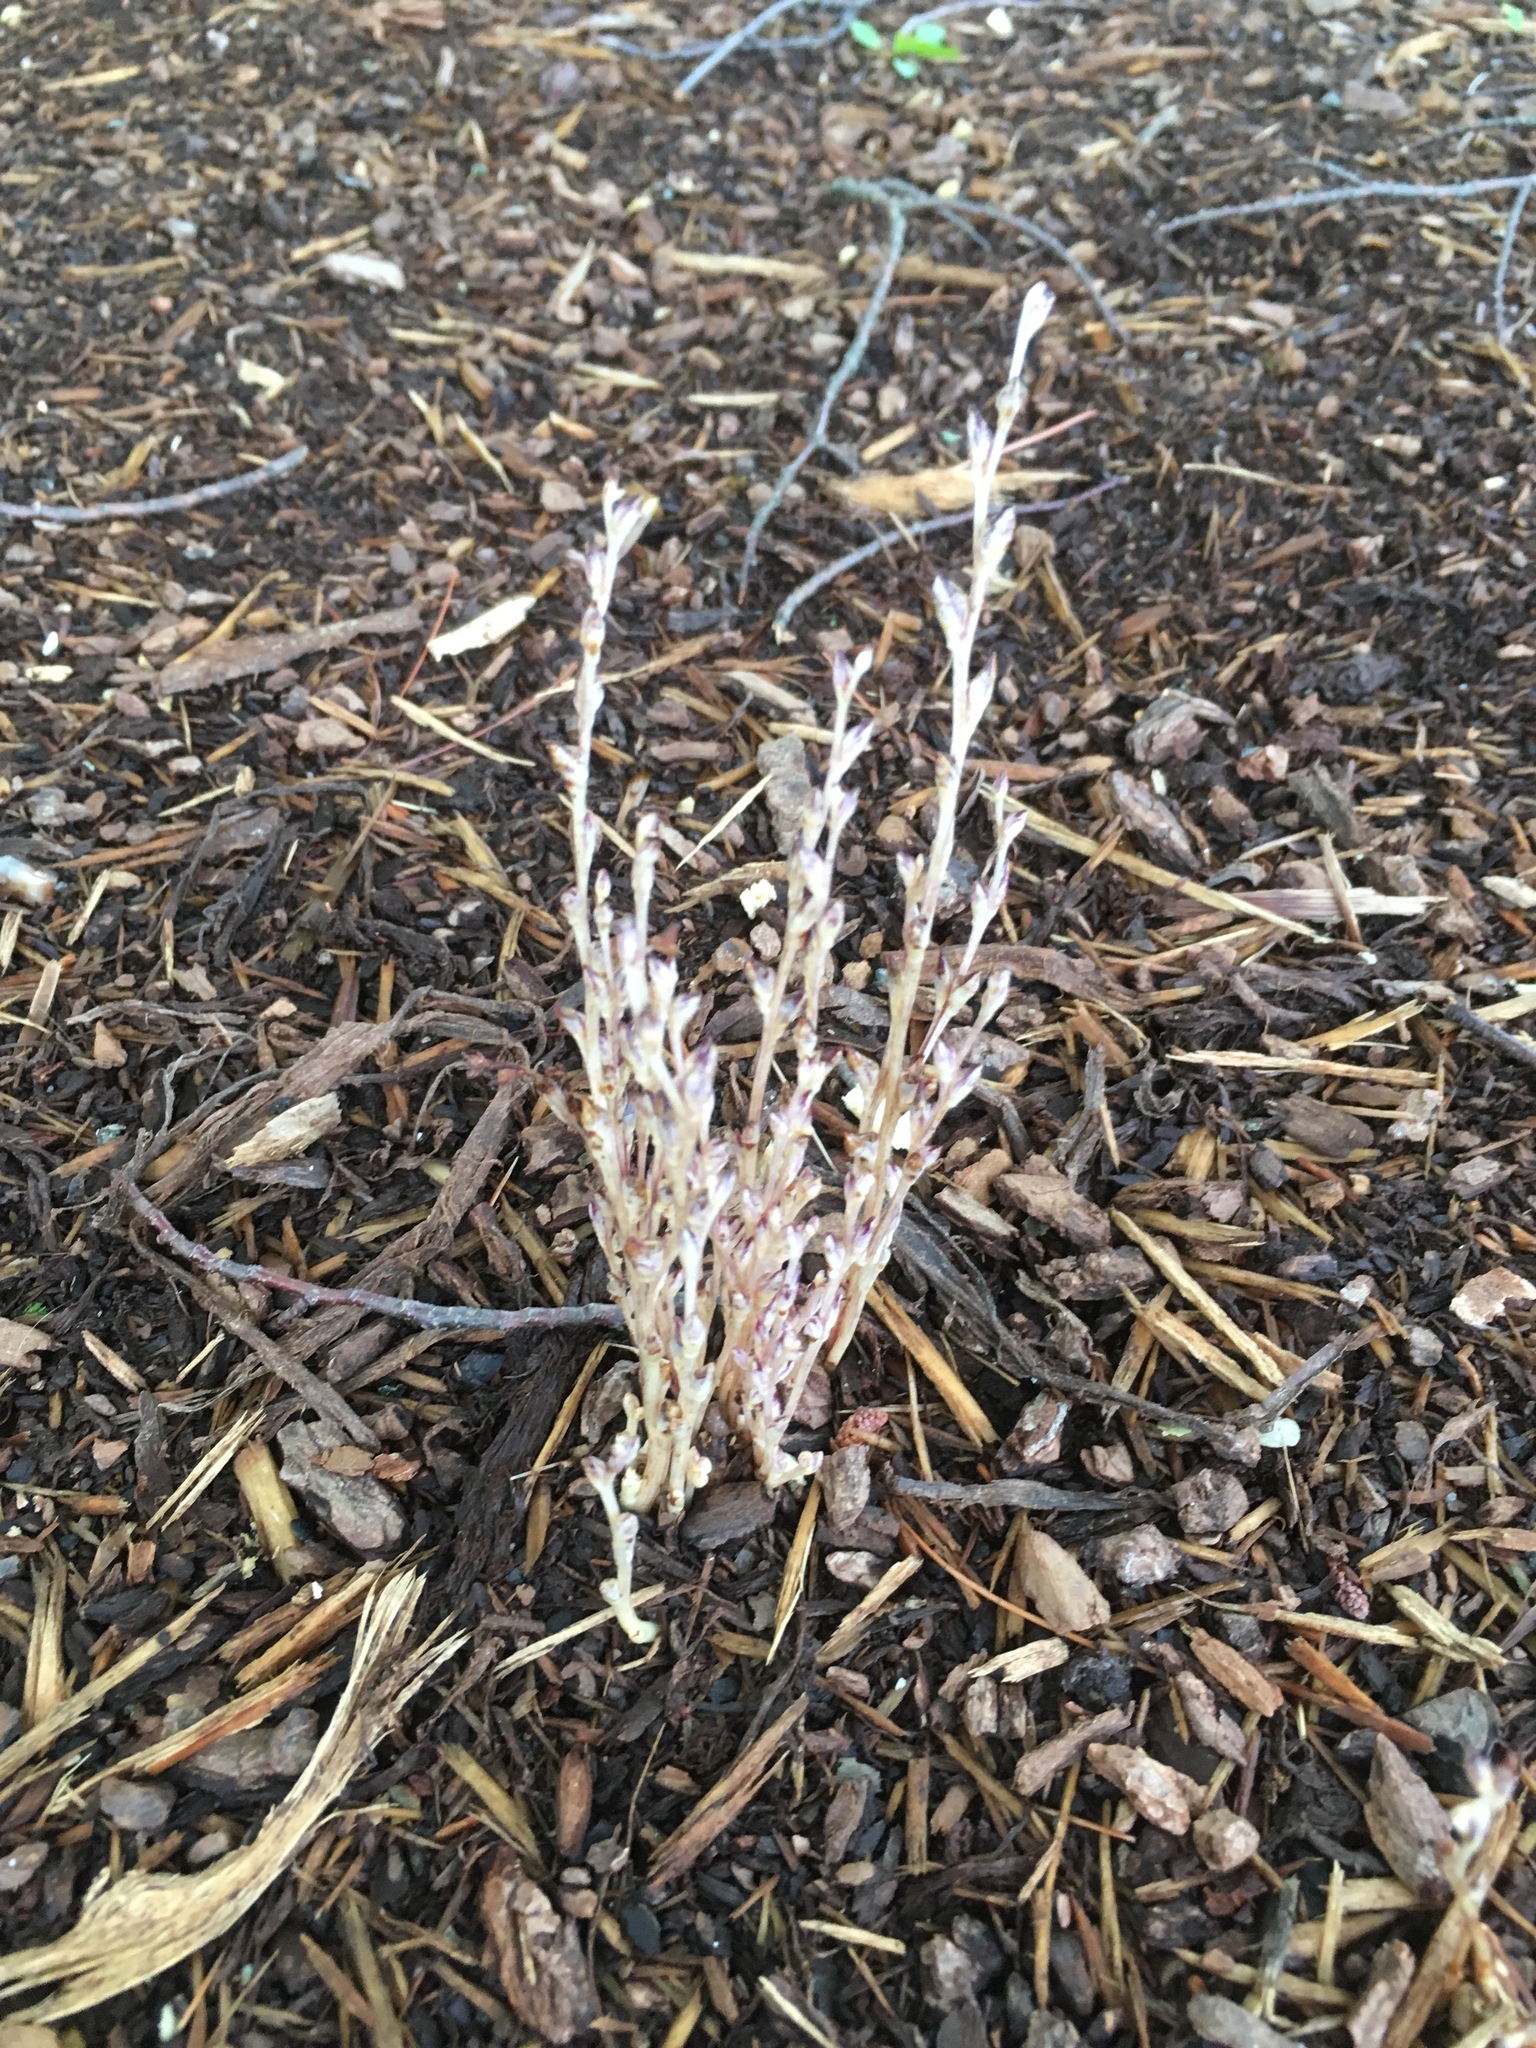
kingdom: Plantae
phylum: Tracheophyta
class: Magnoliopsida
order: Lamiales
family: Orobanchaceae
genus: Epifagus
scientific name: Epifagus virginiana
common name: Beechdrops
